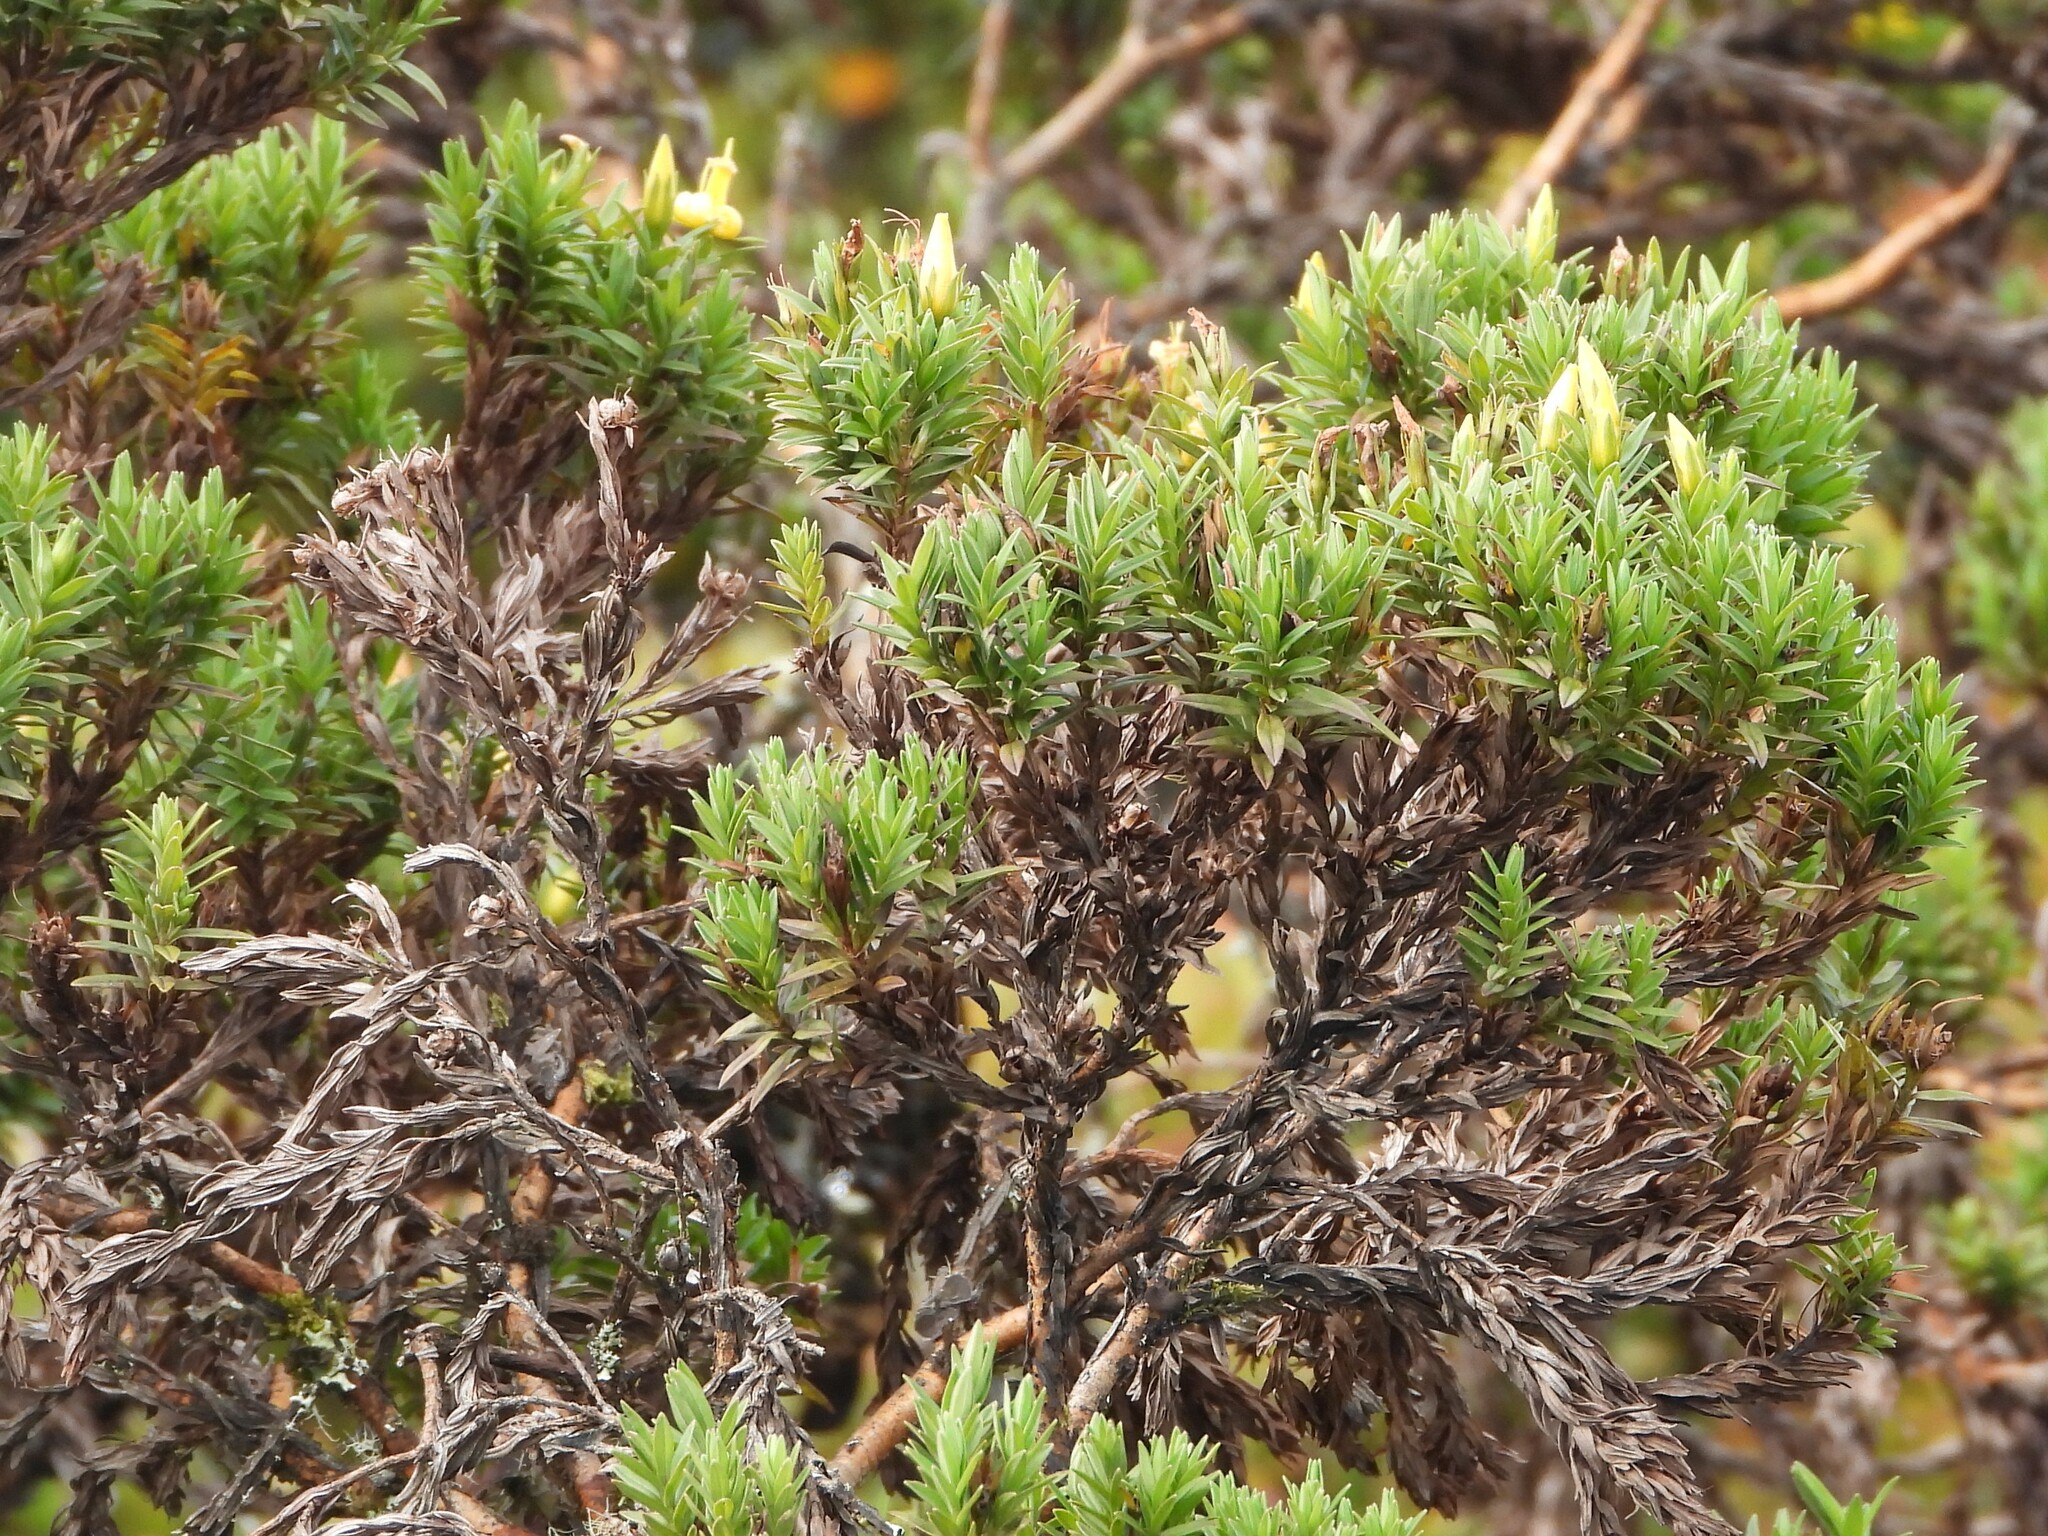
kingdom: Plantae
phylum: Tracheophyta
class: Magnoliopsida
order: Malpighiales
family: Hypericaceae
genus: Hypericum
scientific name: Hypericum irazuense
